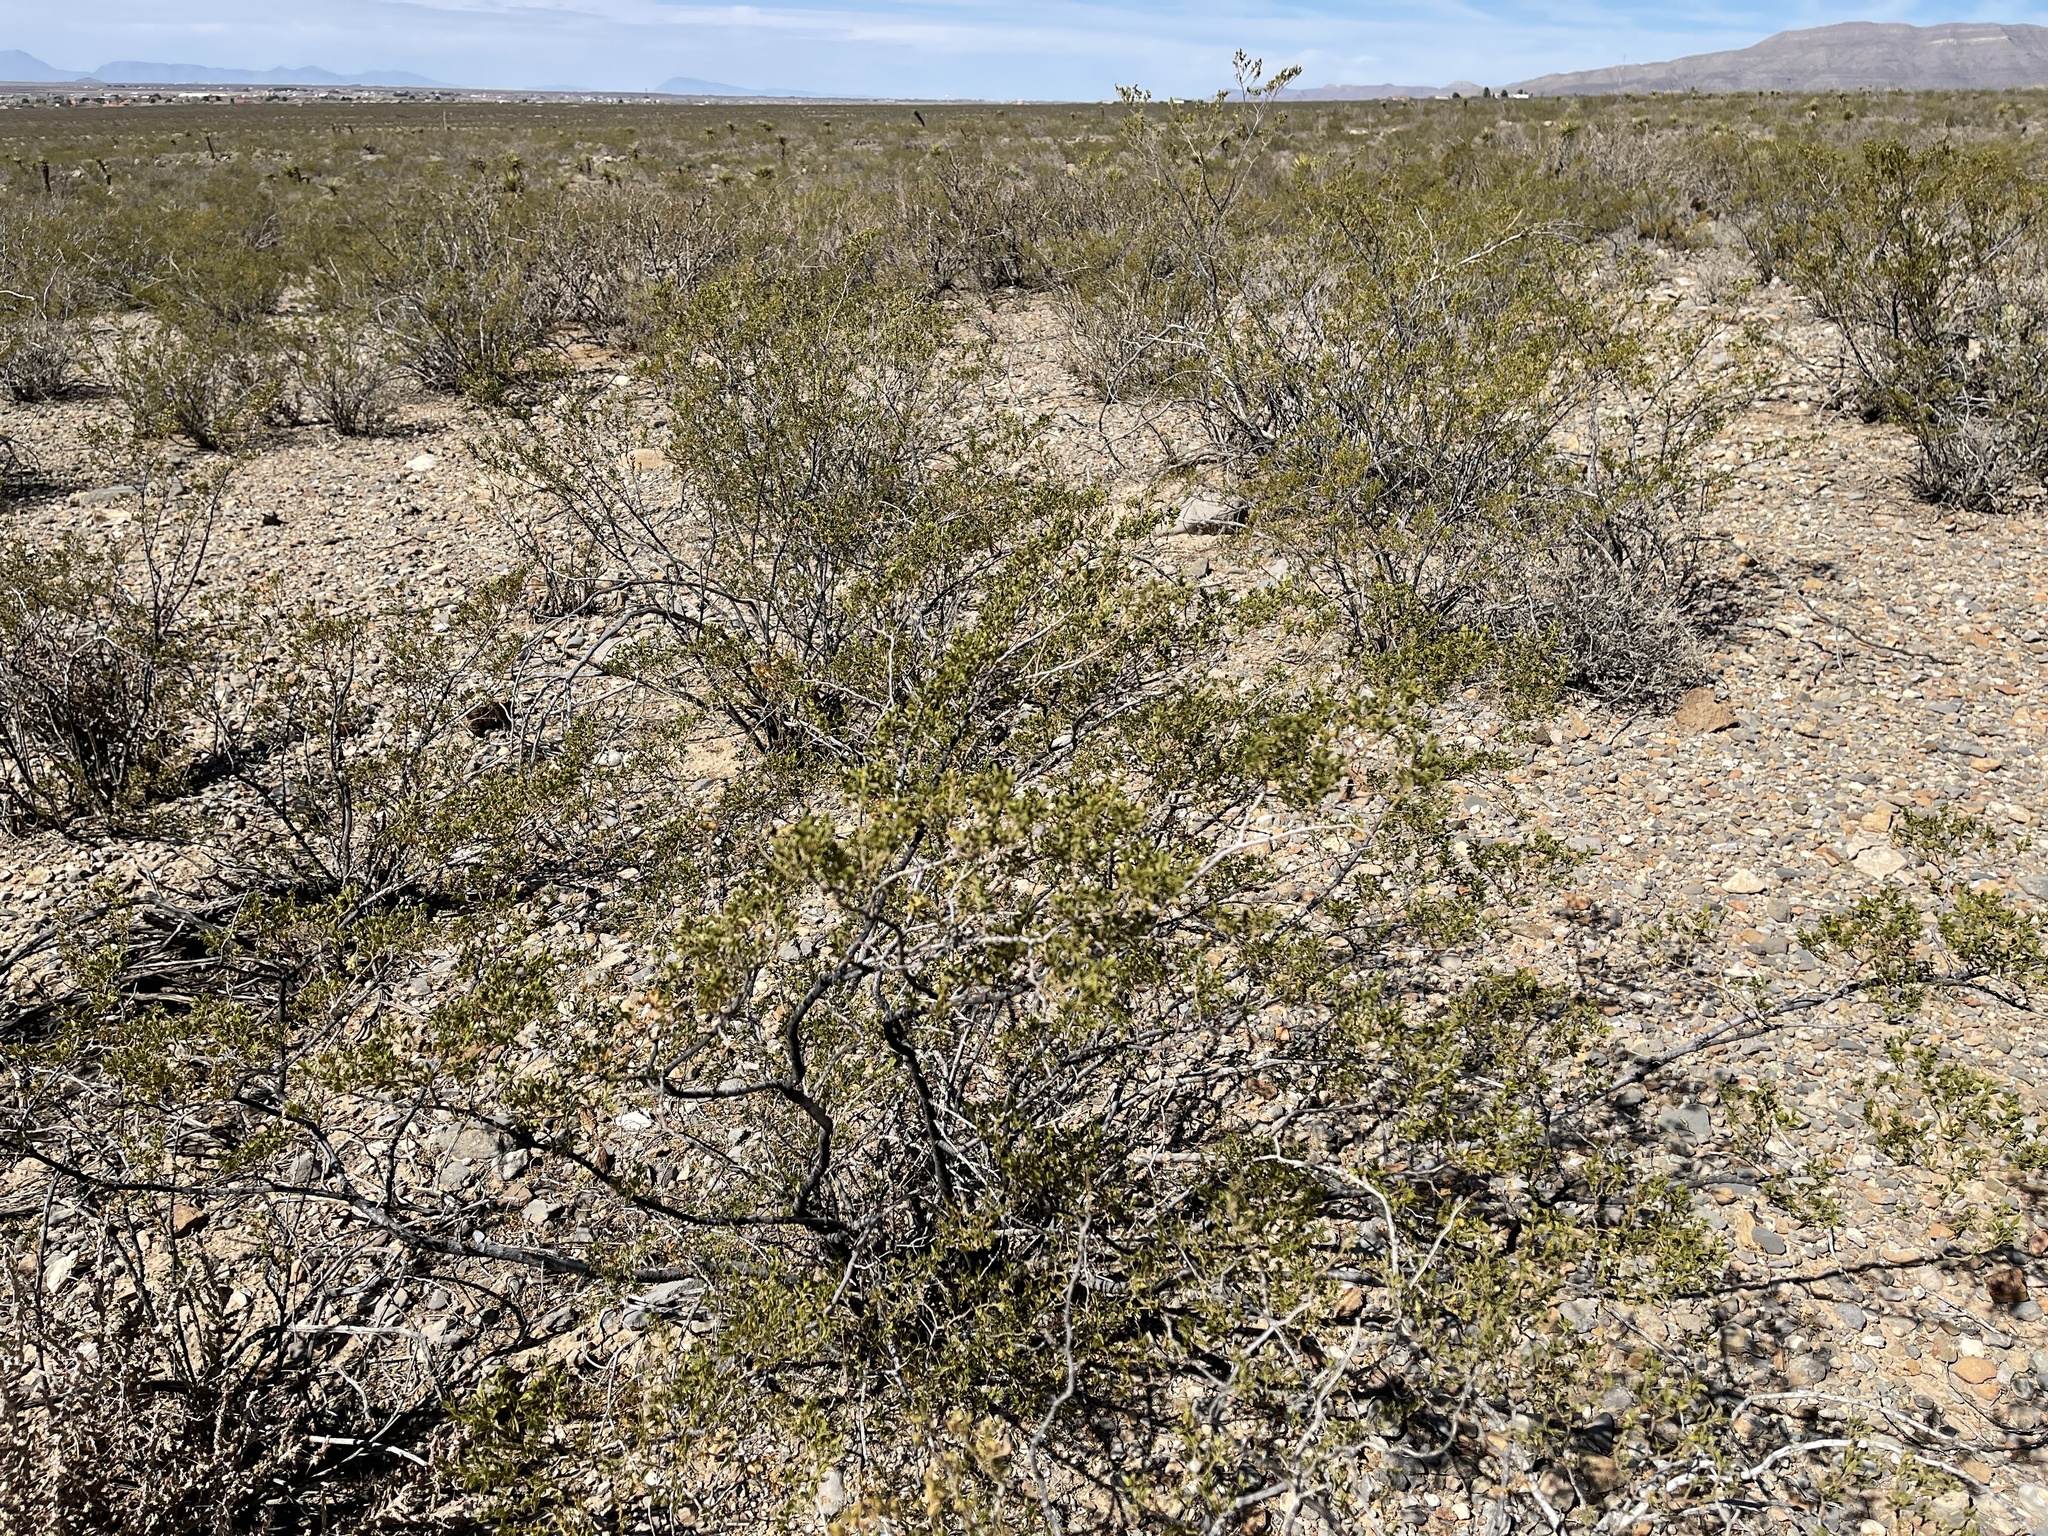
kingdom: Plantae
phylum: Tracheophyta
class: Magnoliopsida
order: Zygophyllales
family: Zygophyllaceae
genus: Larrea
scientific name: Larrea tridentata
